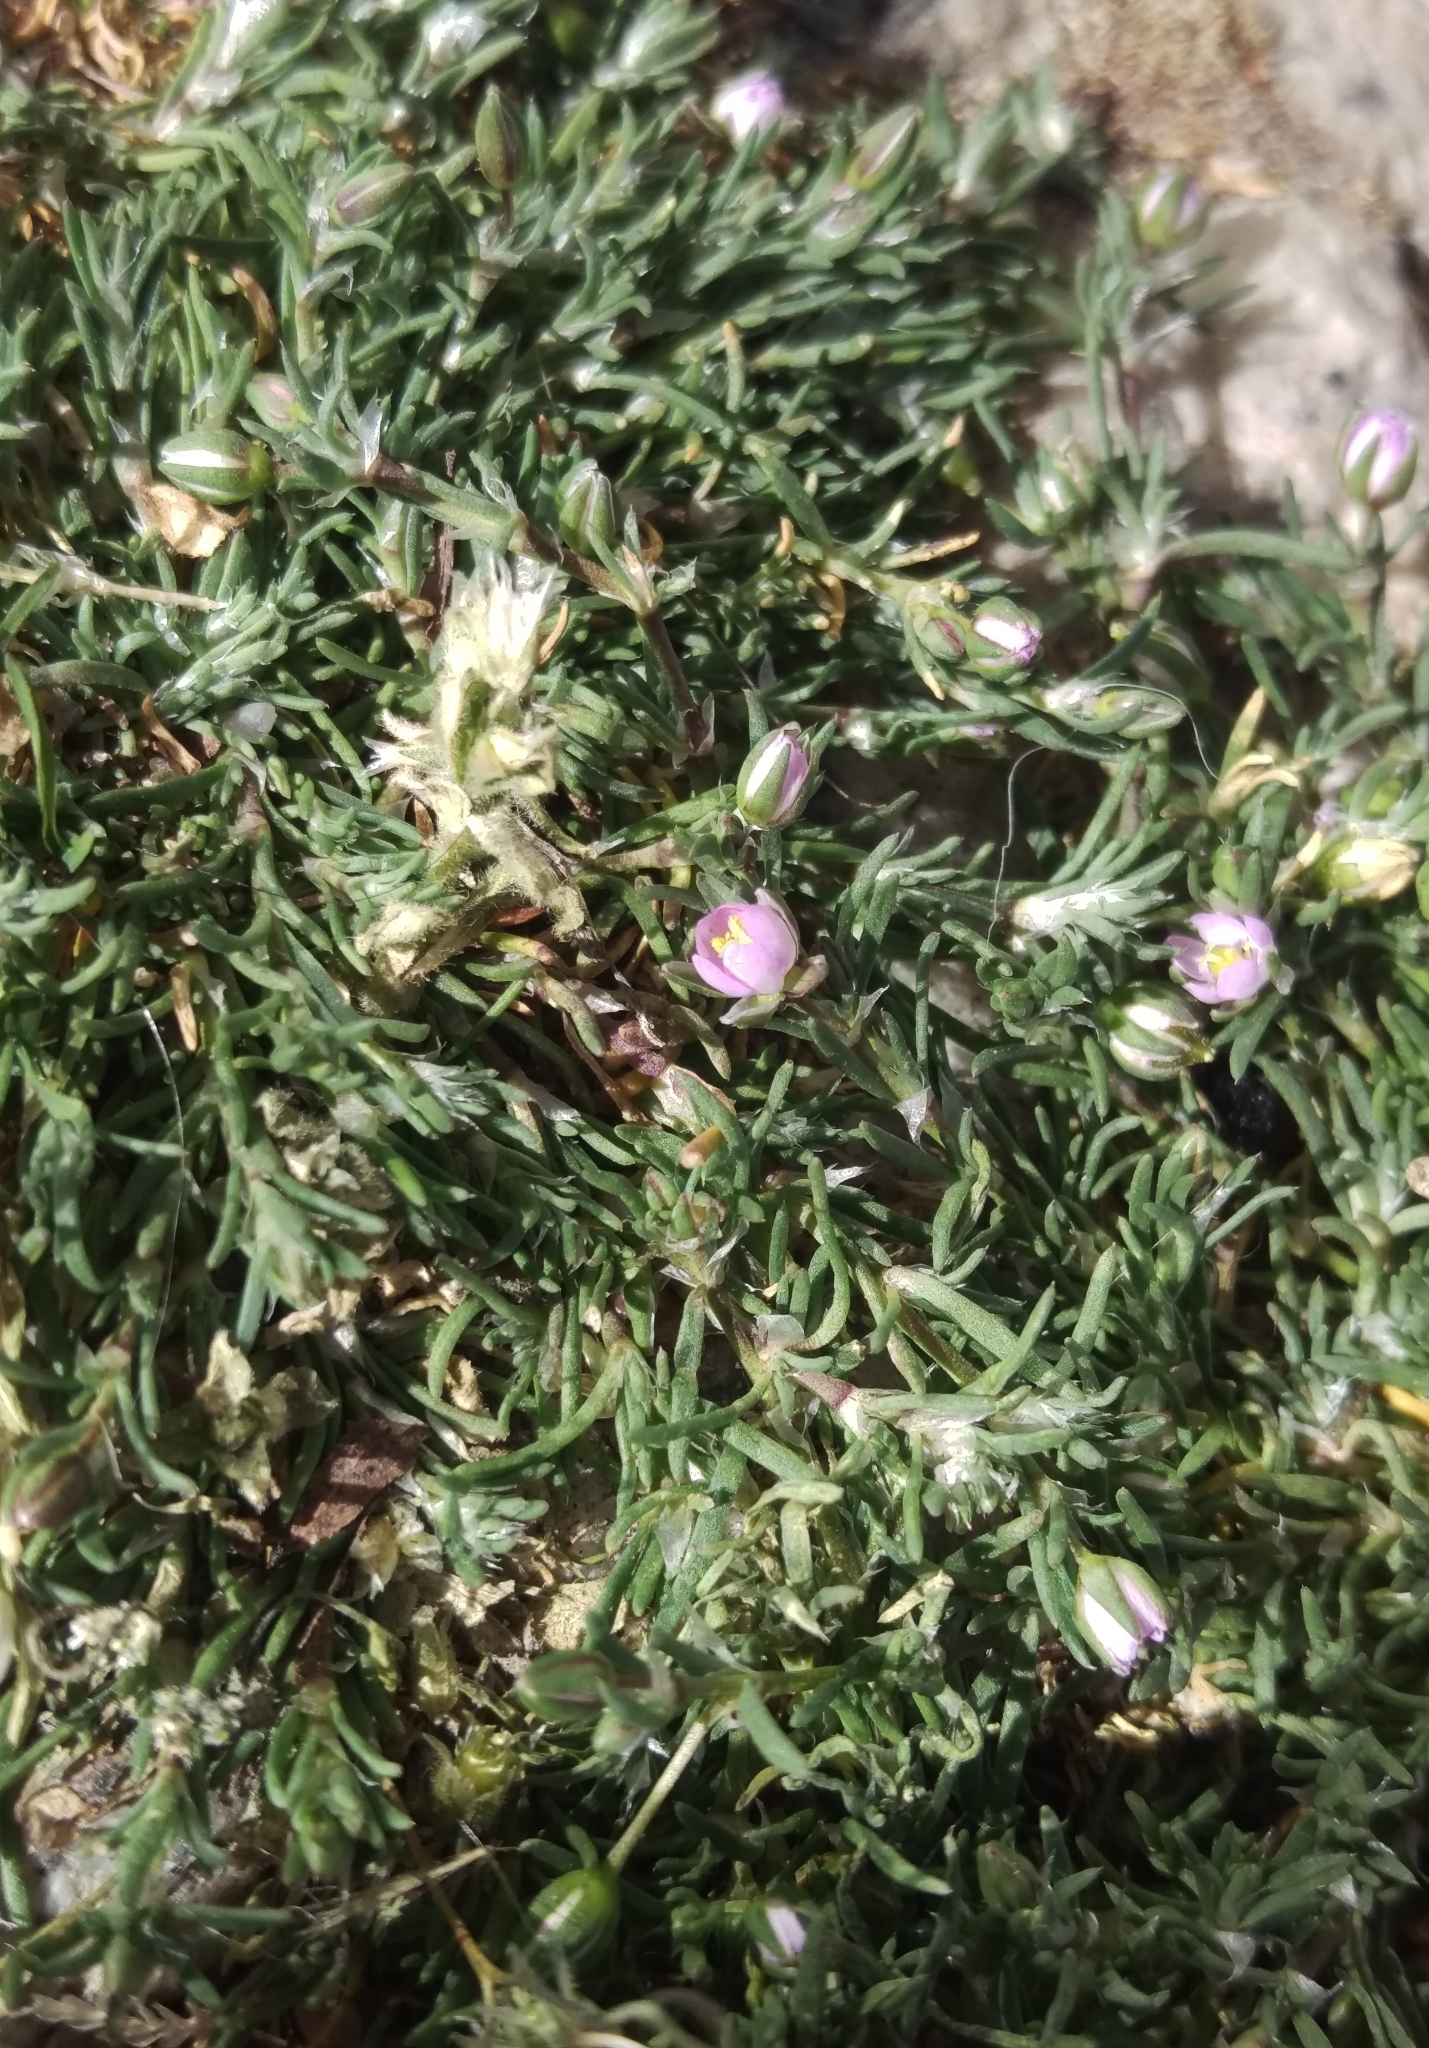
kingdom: Plantae
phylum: Tracheophyta
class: Magnoliopsida
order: Caryophyllales
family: Caryophyllaceae
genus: Spergularia
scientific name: Spergularia rubra
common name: Red sand-spurrey
